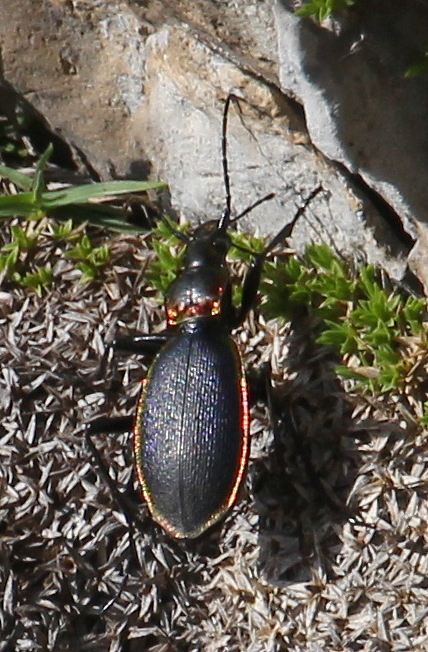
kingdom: Animalia
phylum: Arthropoda
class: Insecta
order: Coleoptera
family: Carabidae
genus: Carabus
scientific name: Carabus arcadicus
